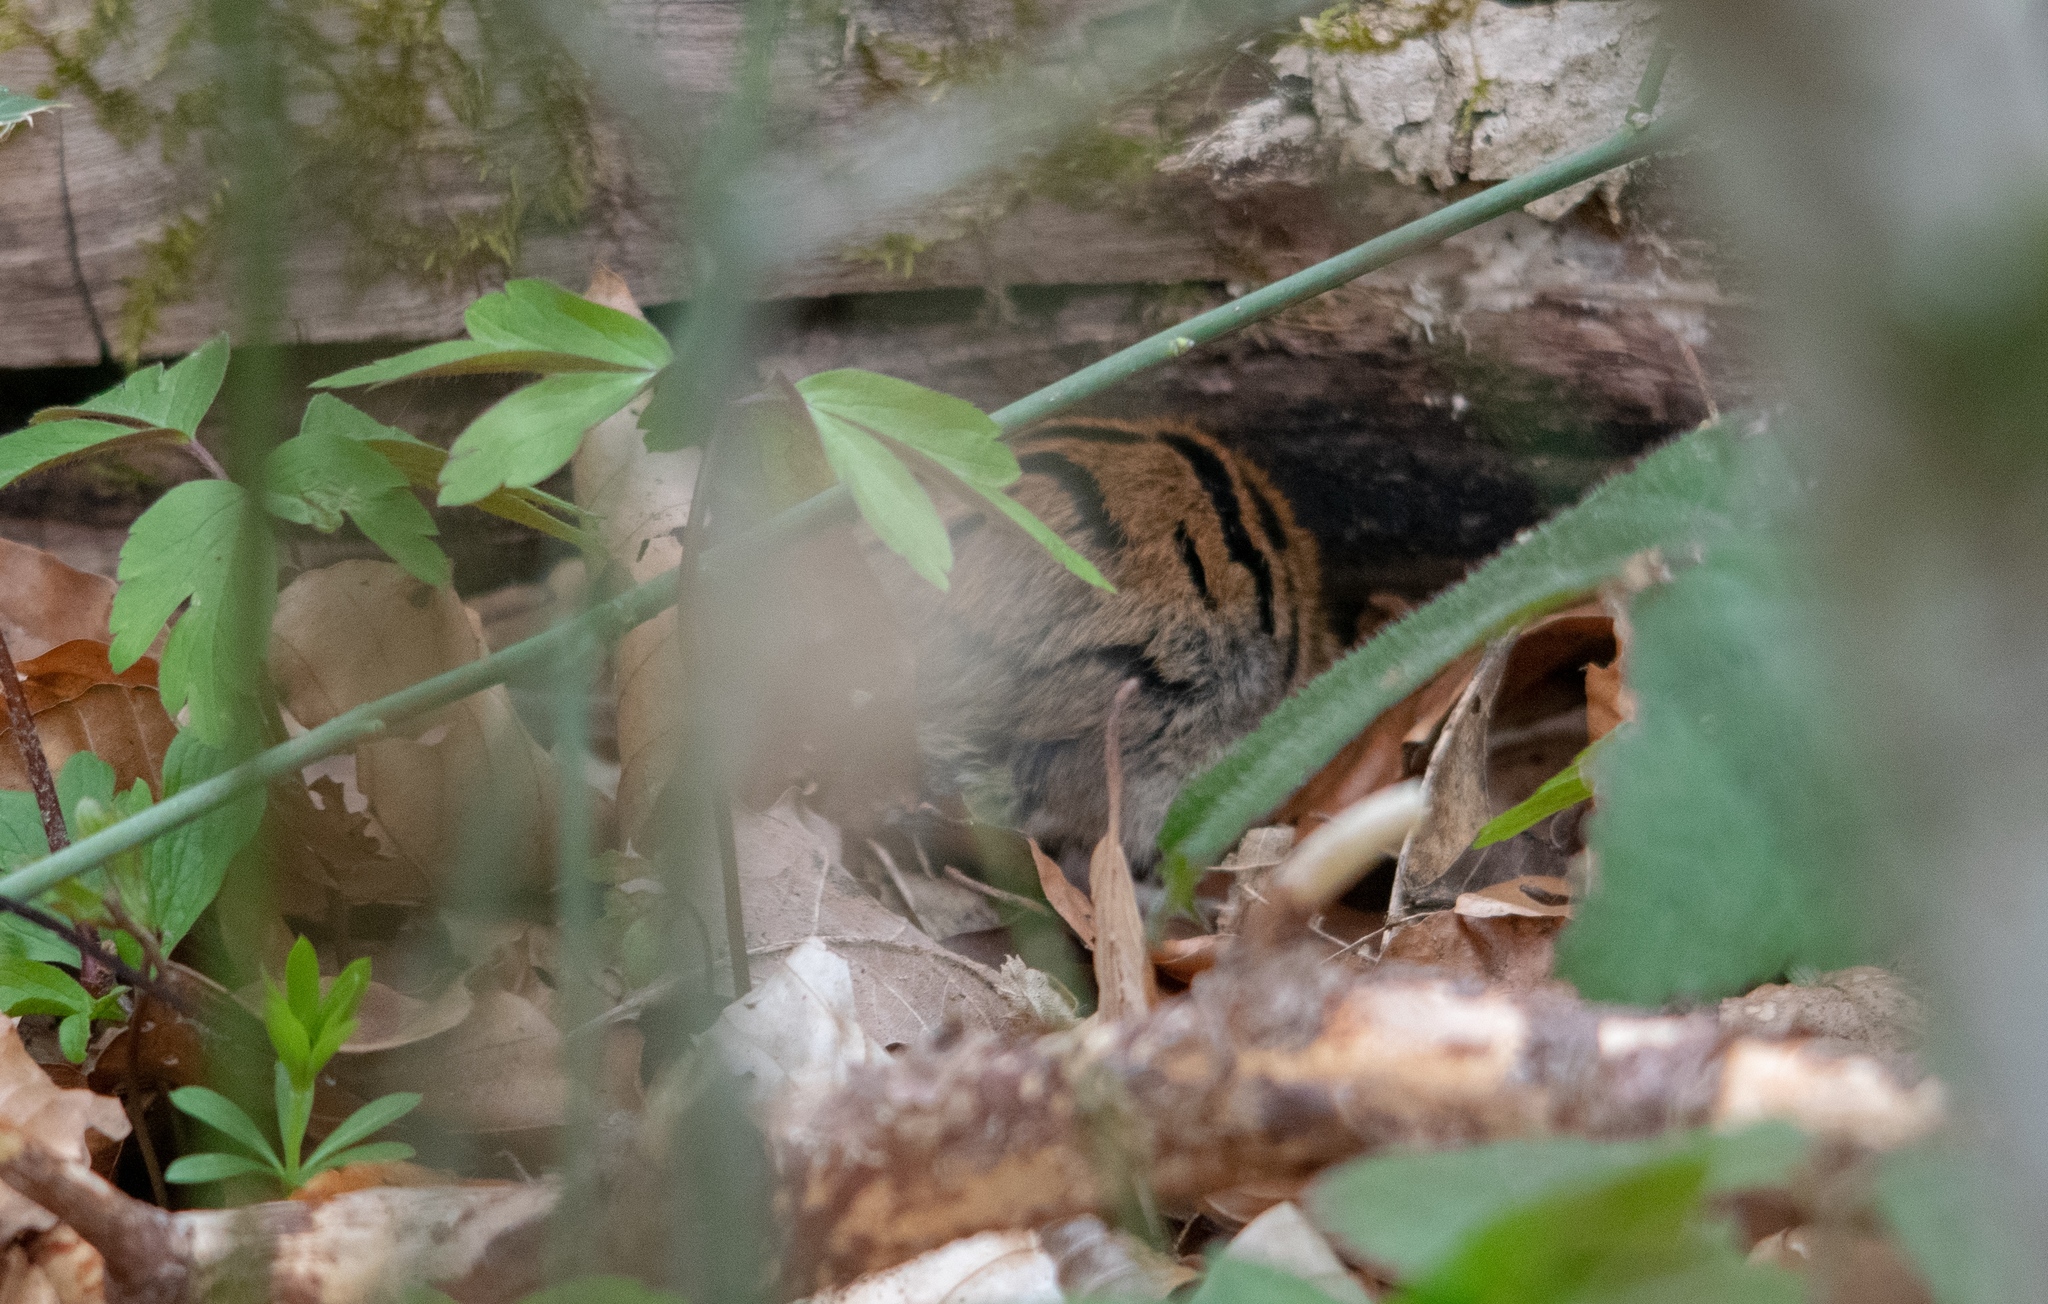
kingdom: Animalia
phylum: Chordata
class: Mammalia
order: Rodentia
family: Cricetidae
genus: Myodes
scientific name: Myodes glareolus
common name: Bank vole
